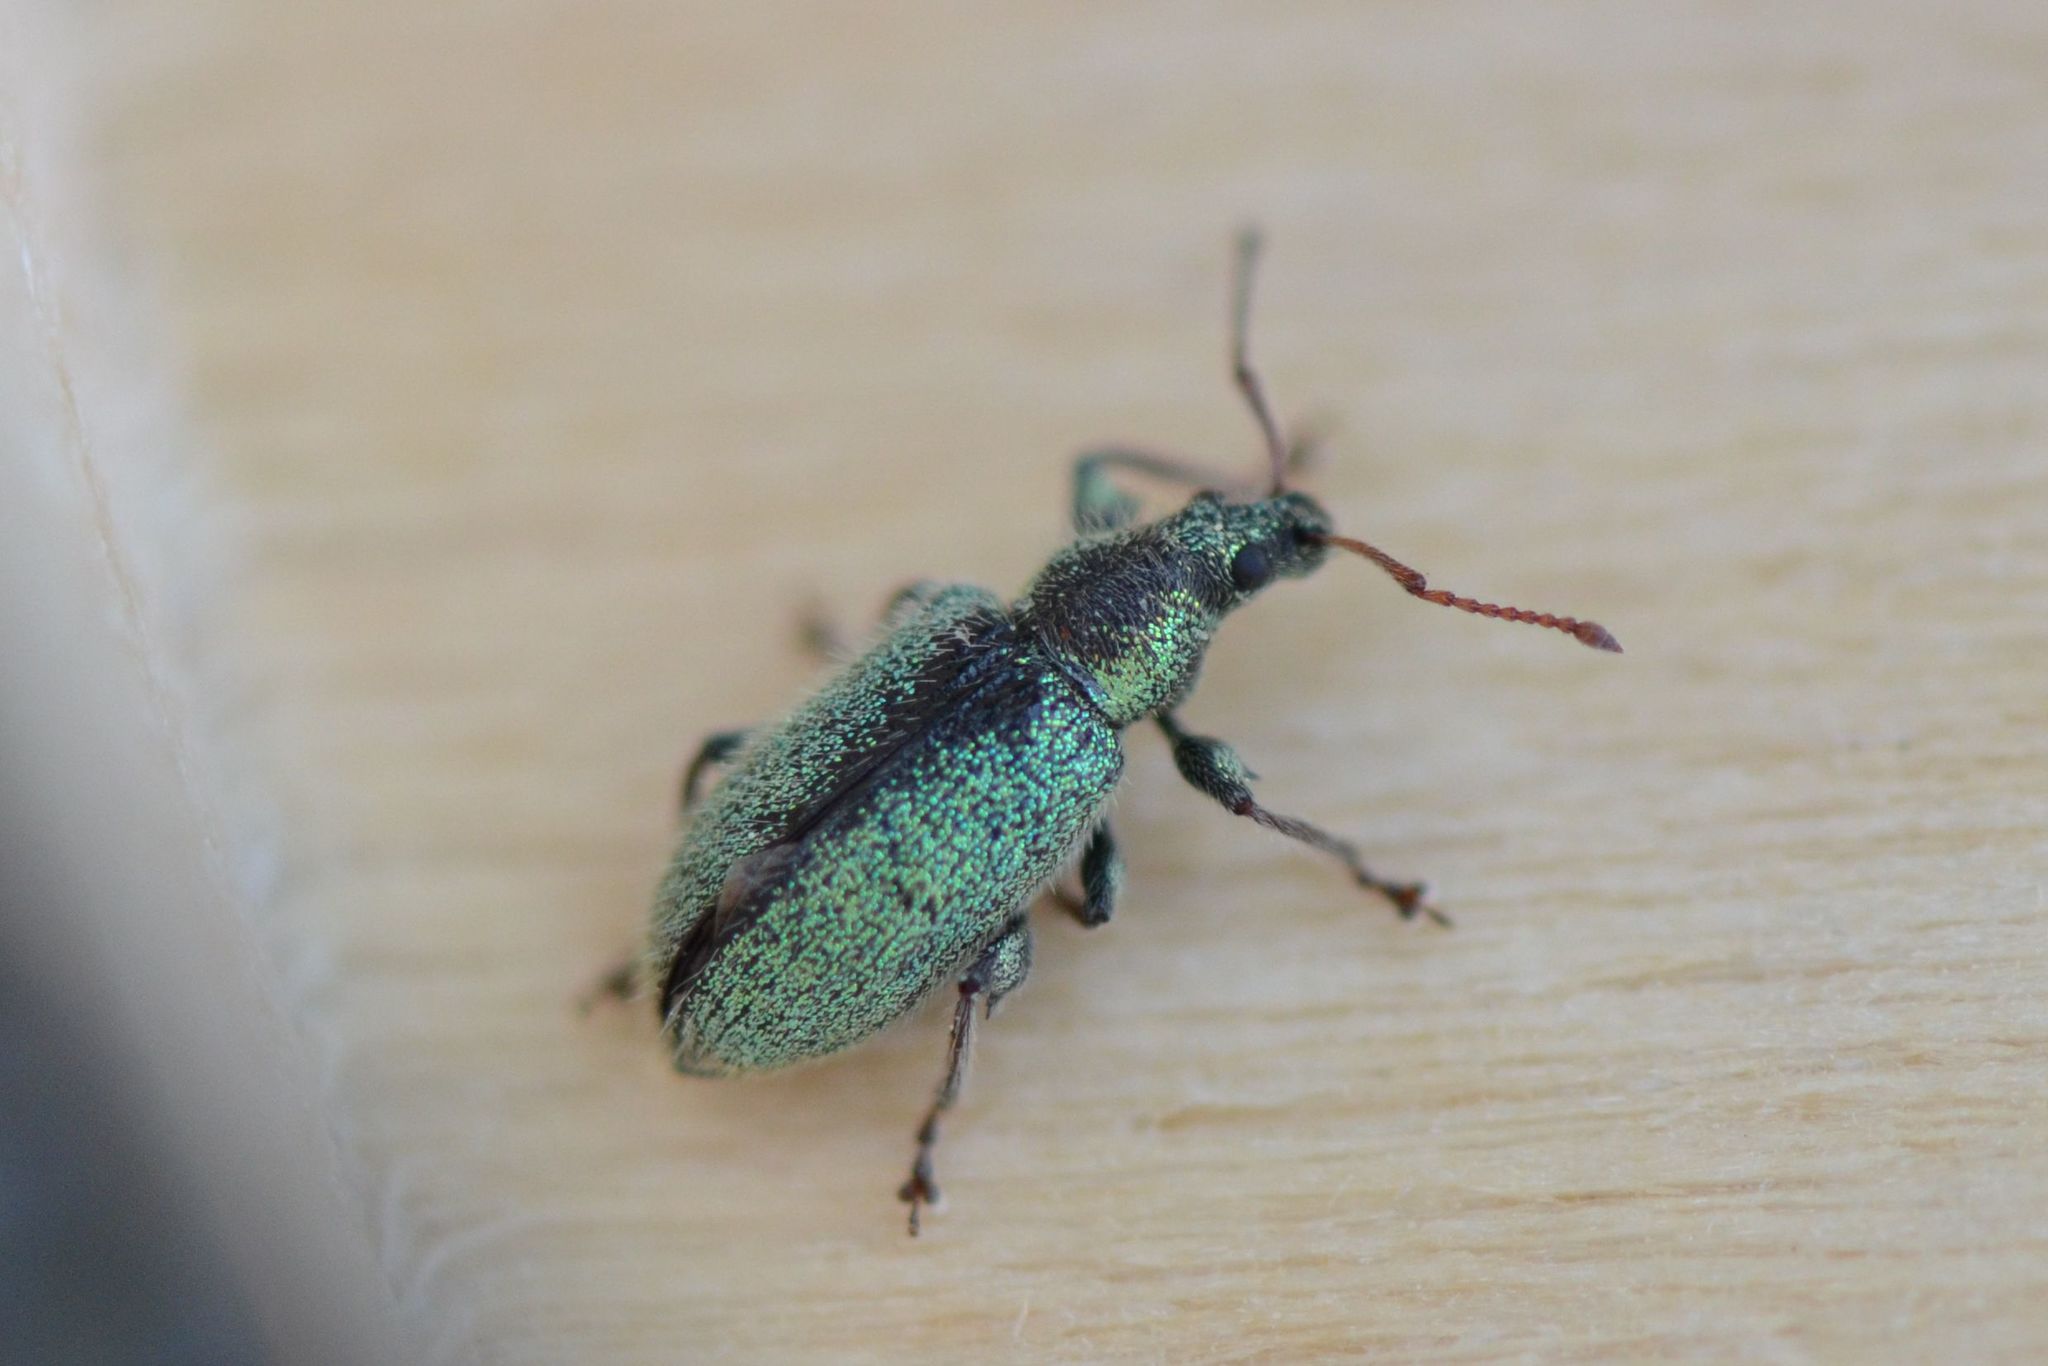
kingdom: Animalia
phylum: Arthropoda
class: Insecta
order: Coleoptera
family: Curculionidae
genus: Phyllobius
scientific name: Phyllobius betulinus
